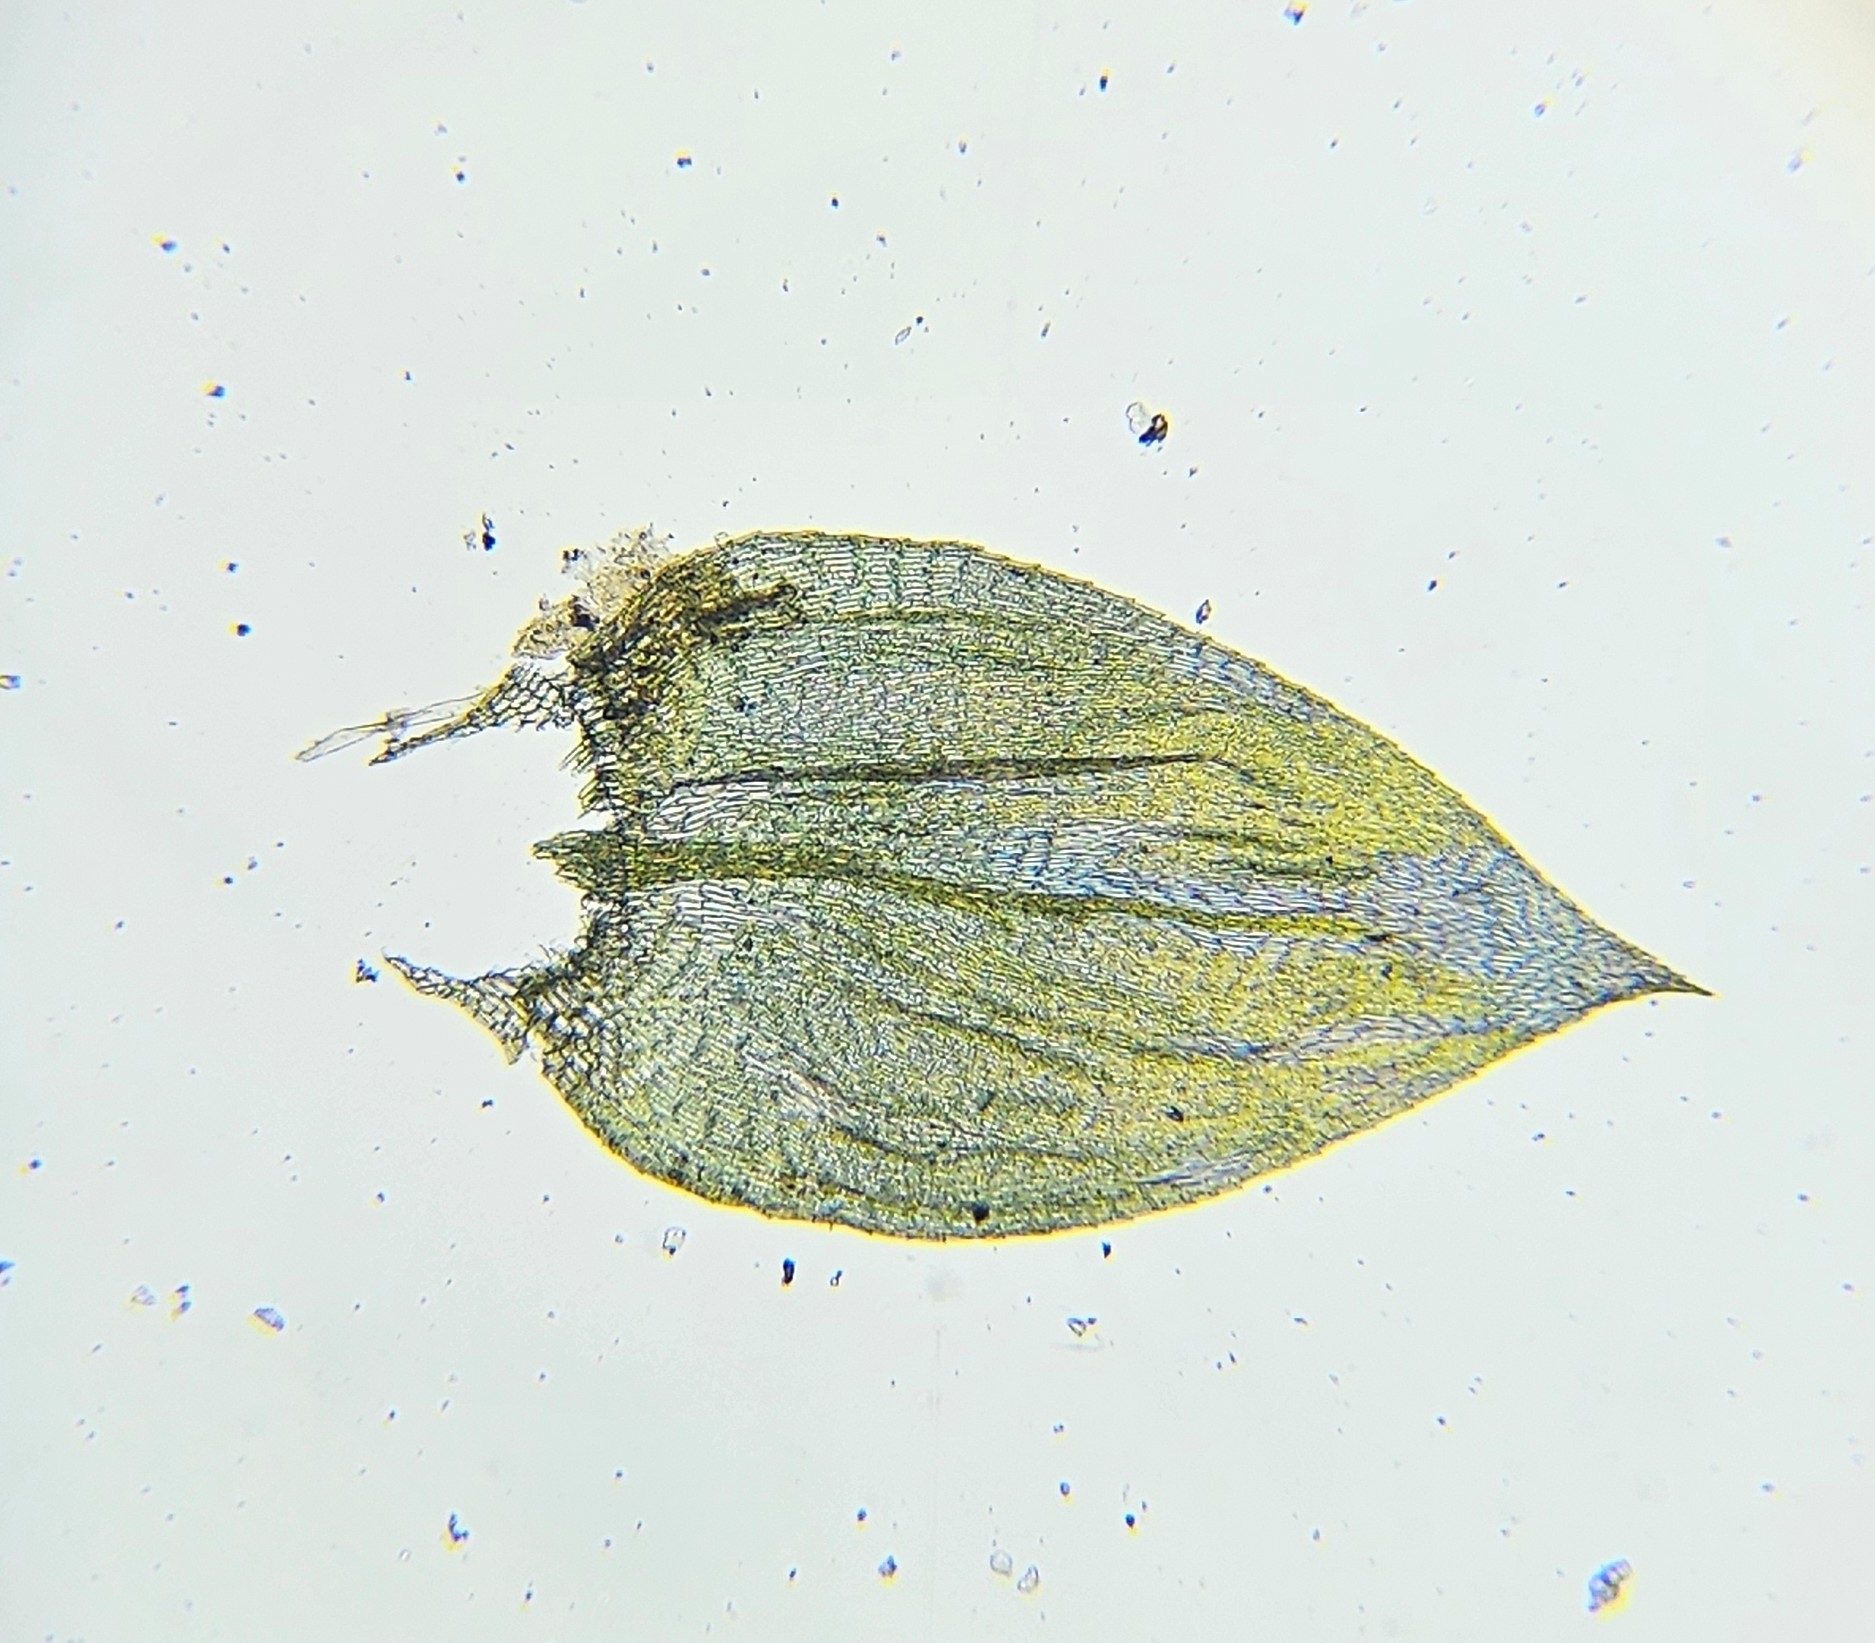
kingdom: Plantae
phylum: Bryophyta
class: Bryopsida
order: Hypnales
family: Brachytheciaceae
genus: Brachythecium
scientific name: Brachythecium rivulare
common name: River ragged moss
